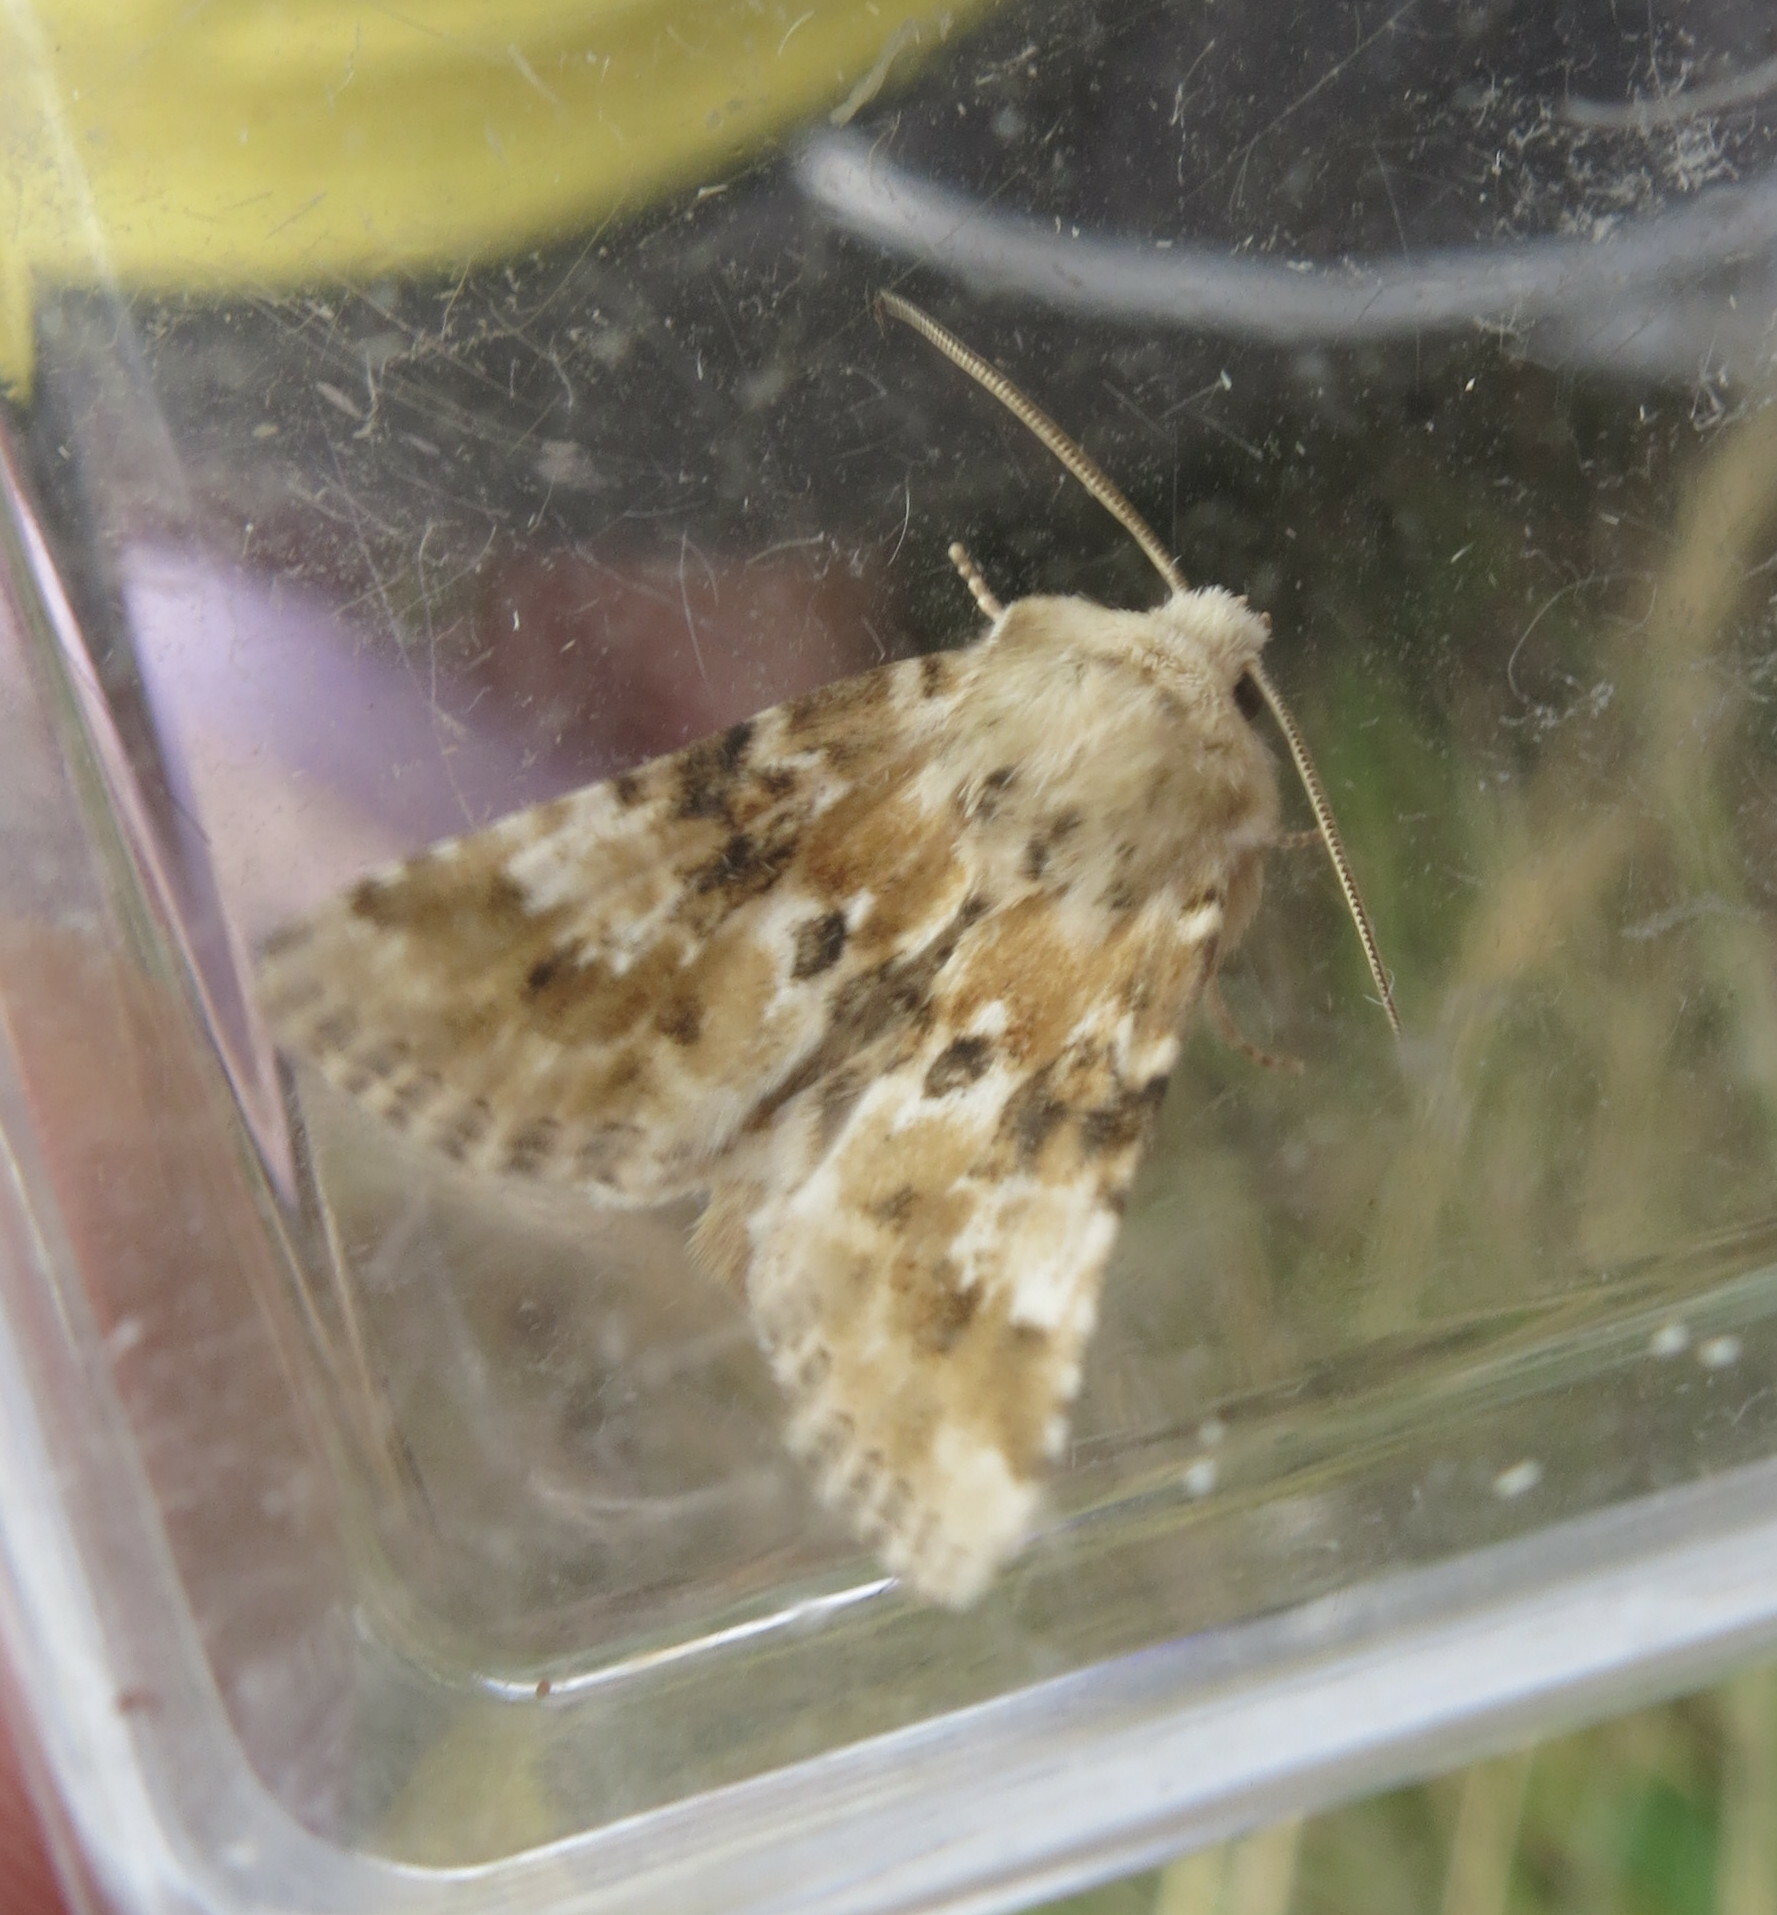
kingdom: Animalia
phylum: Arthropoda
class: Insecta
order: Lepidoptera
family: Noctuidae
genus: Eremobia
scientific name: Eremobia ochroleuca
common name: Dusky sallow
